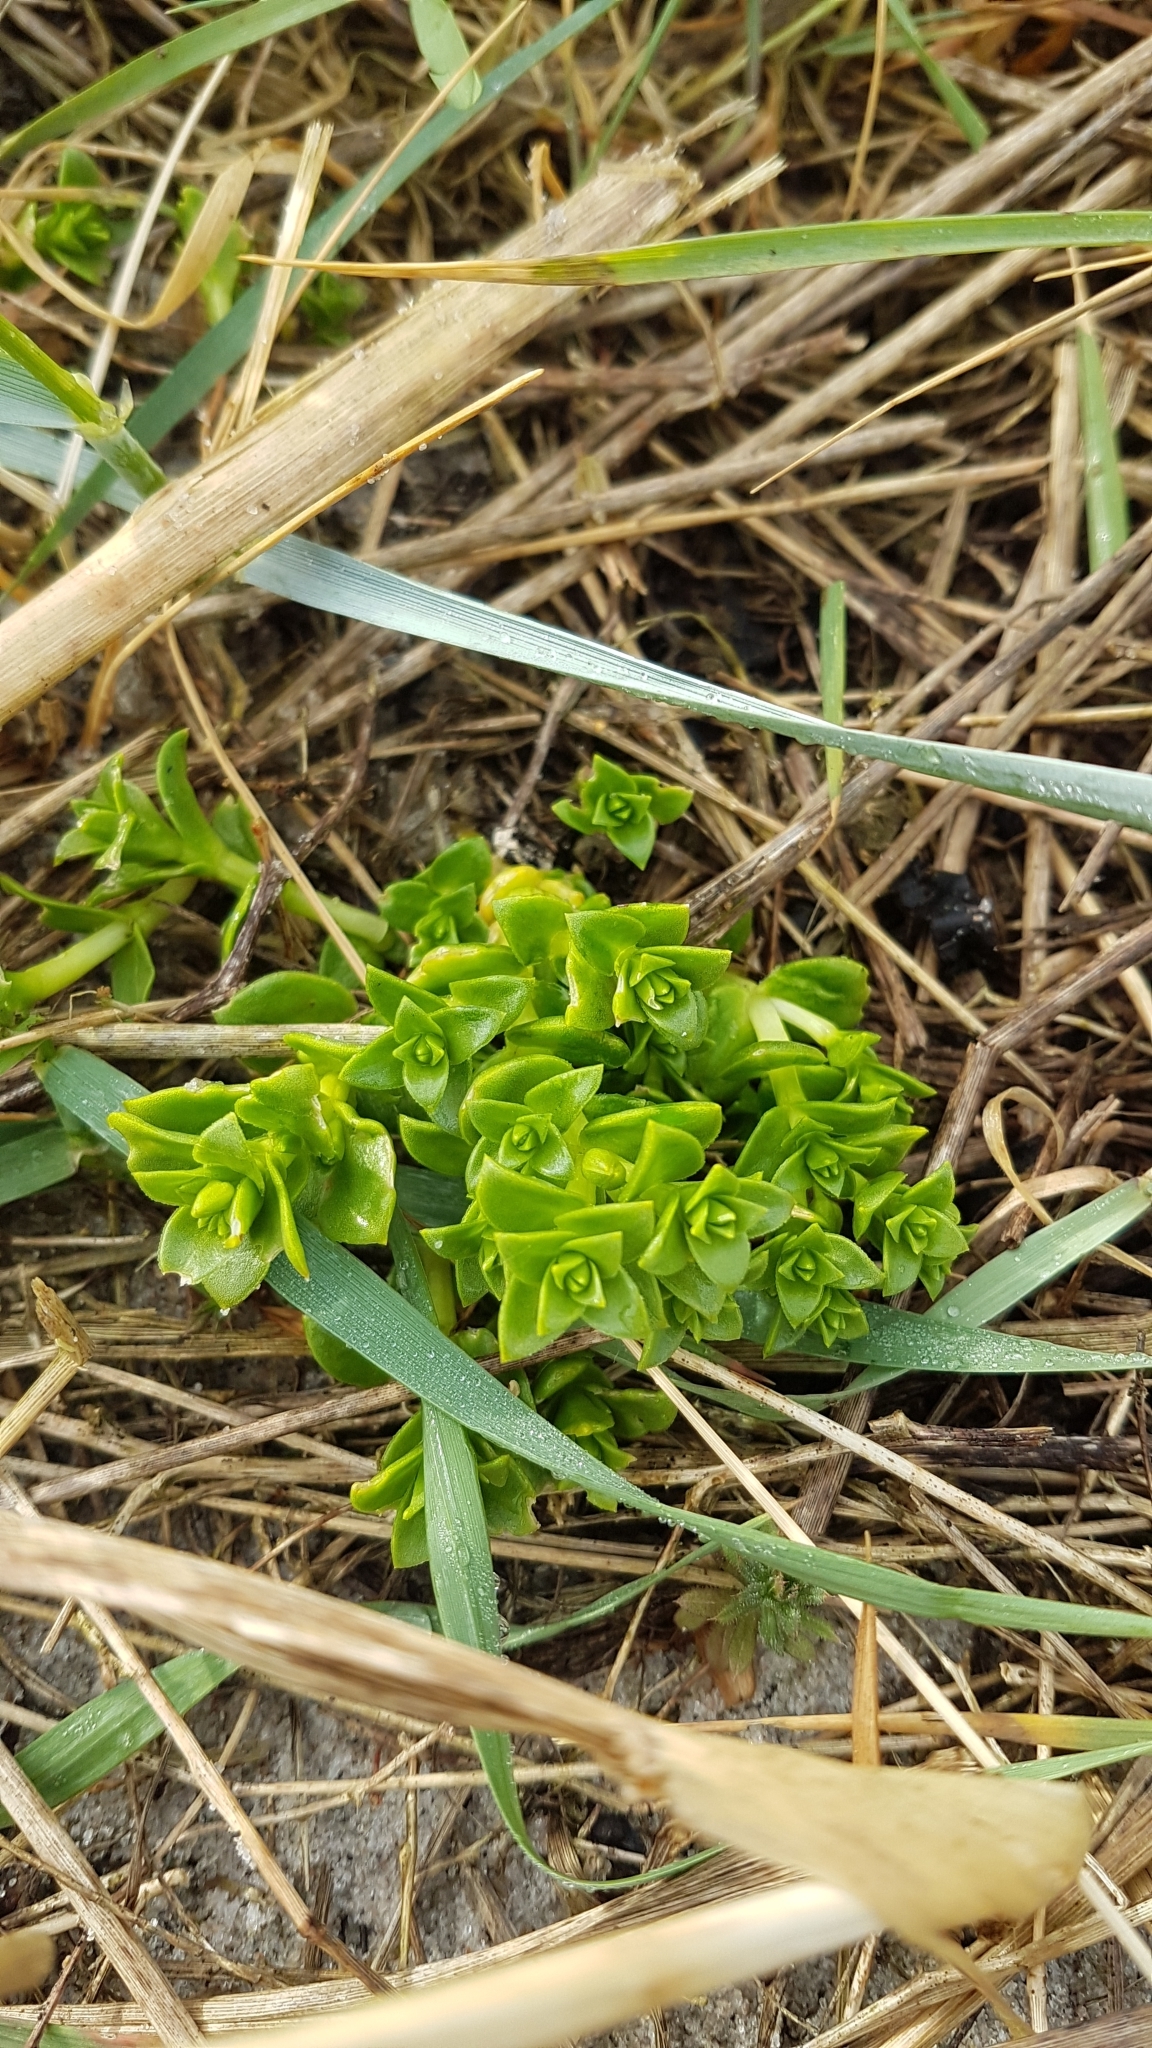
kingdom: Plantae
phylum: Tracheophyta
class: Magnoliopsida
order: Caryophyllales
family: Caryophyllaceae
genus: Honckenya
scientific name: Honckenya peploides
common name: Sea sandwort
